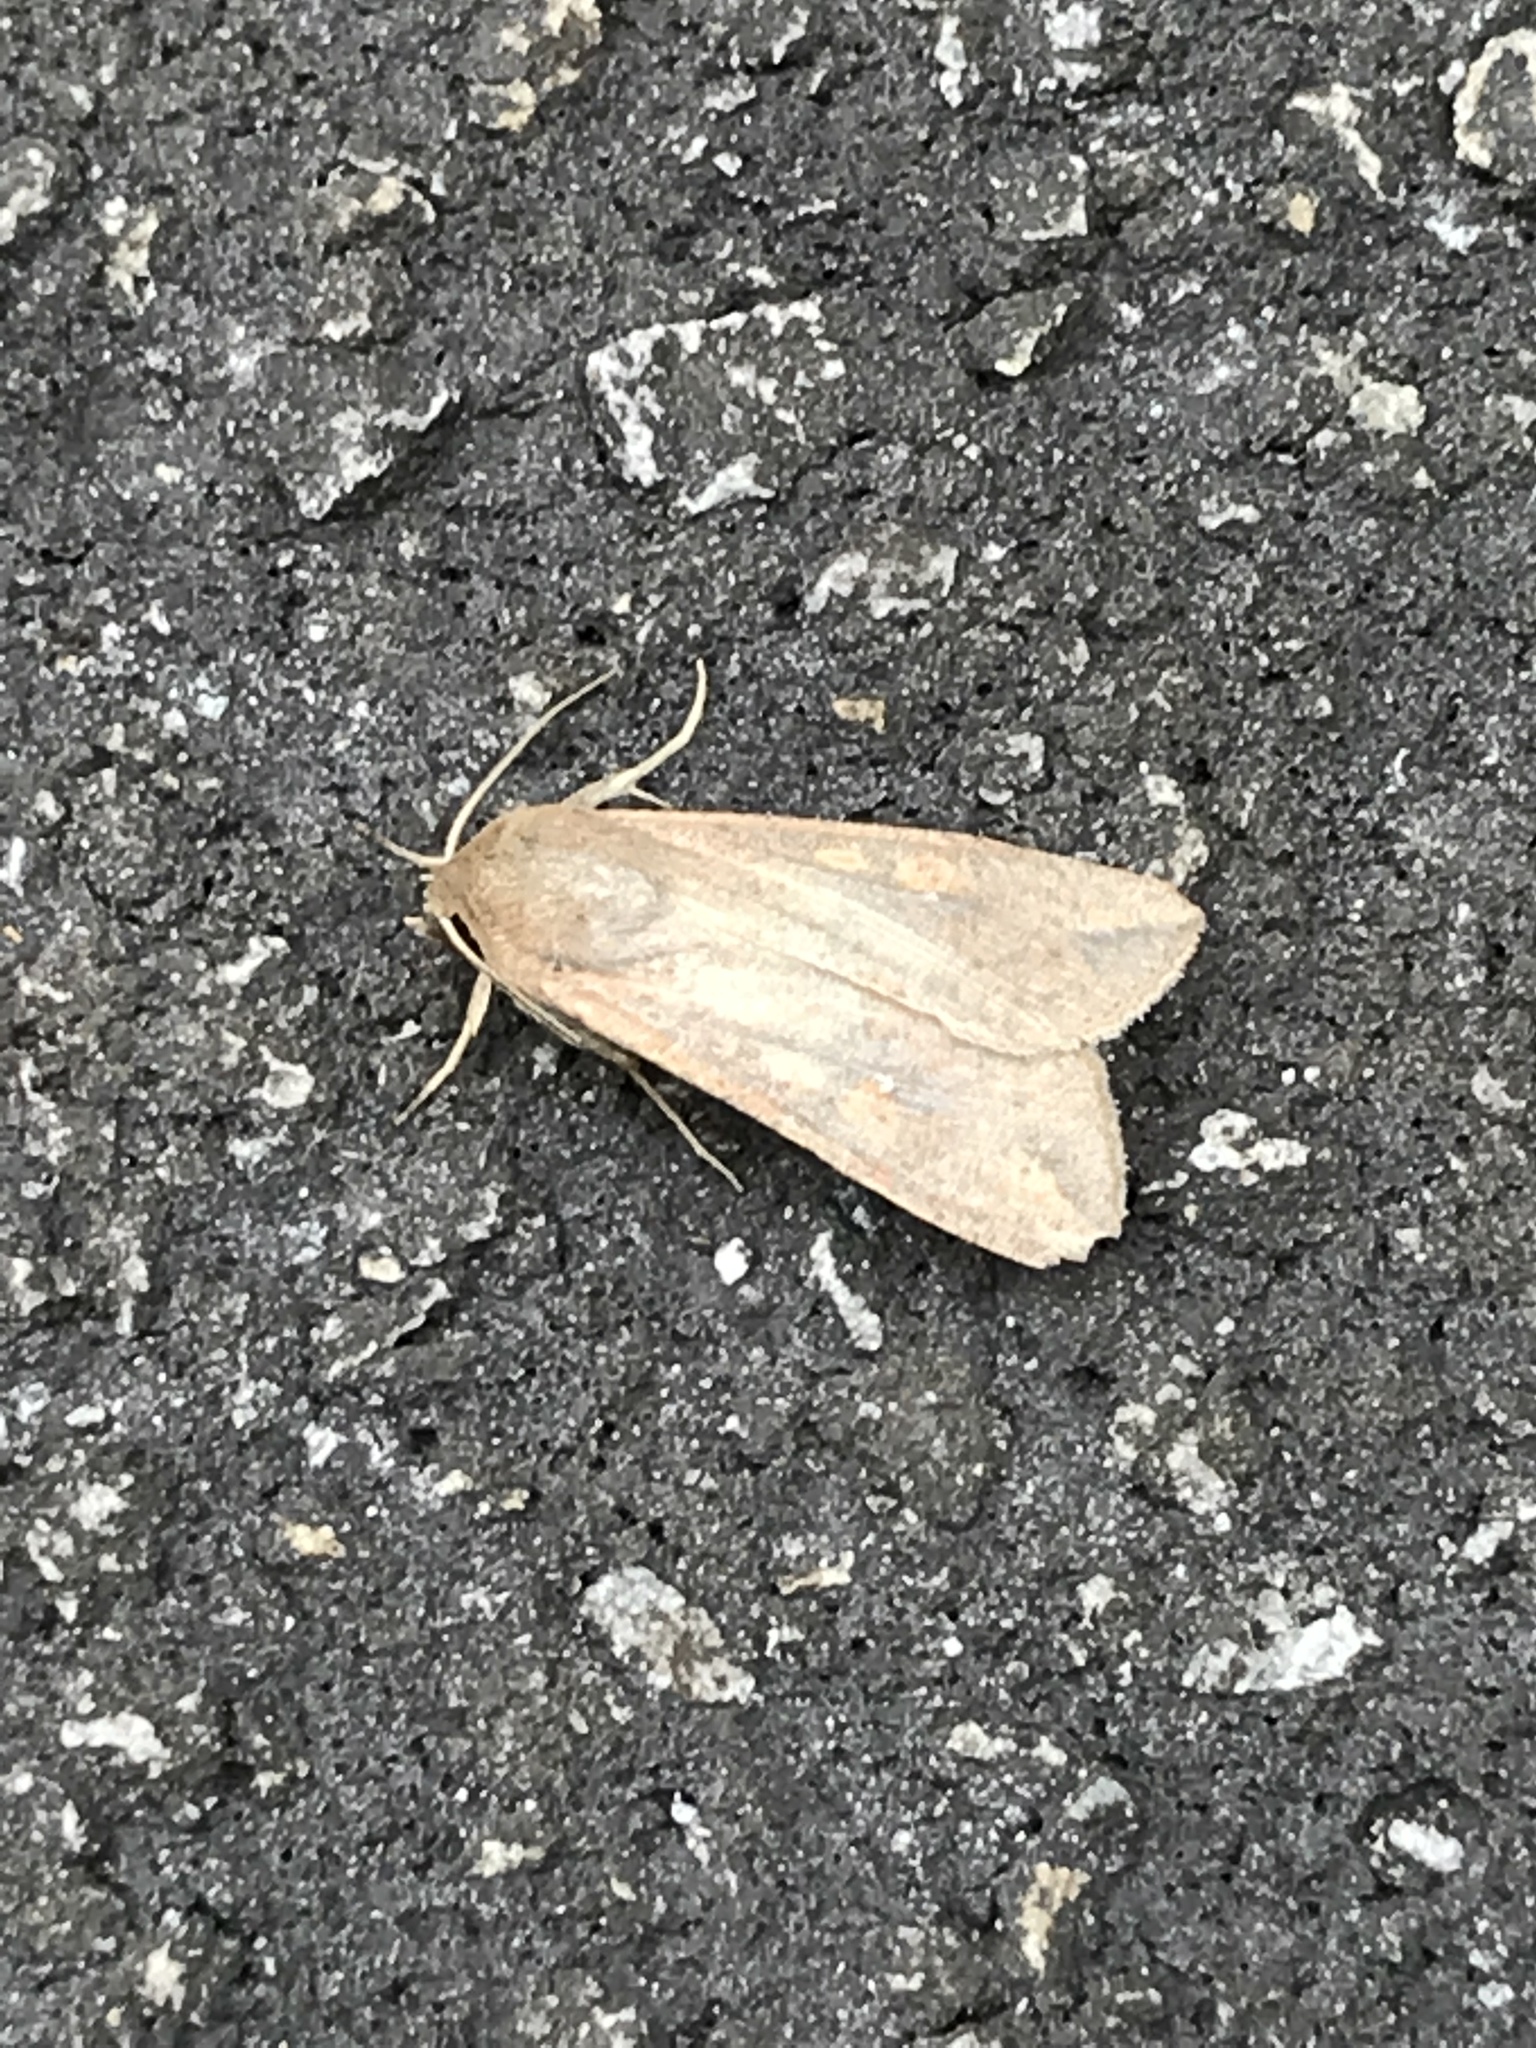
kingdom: Animalia
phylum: Arthropoda
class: Insecta
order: Lepidoptera
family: Noctuidae
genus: Mythimna
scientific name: Mythimna unipuncta
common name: White-speck
